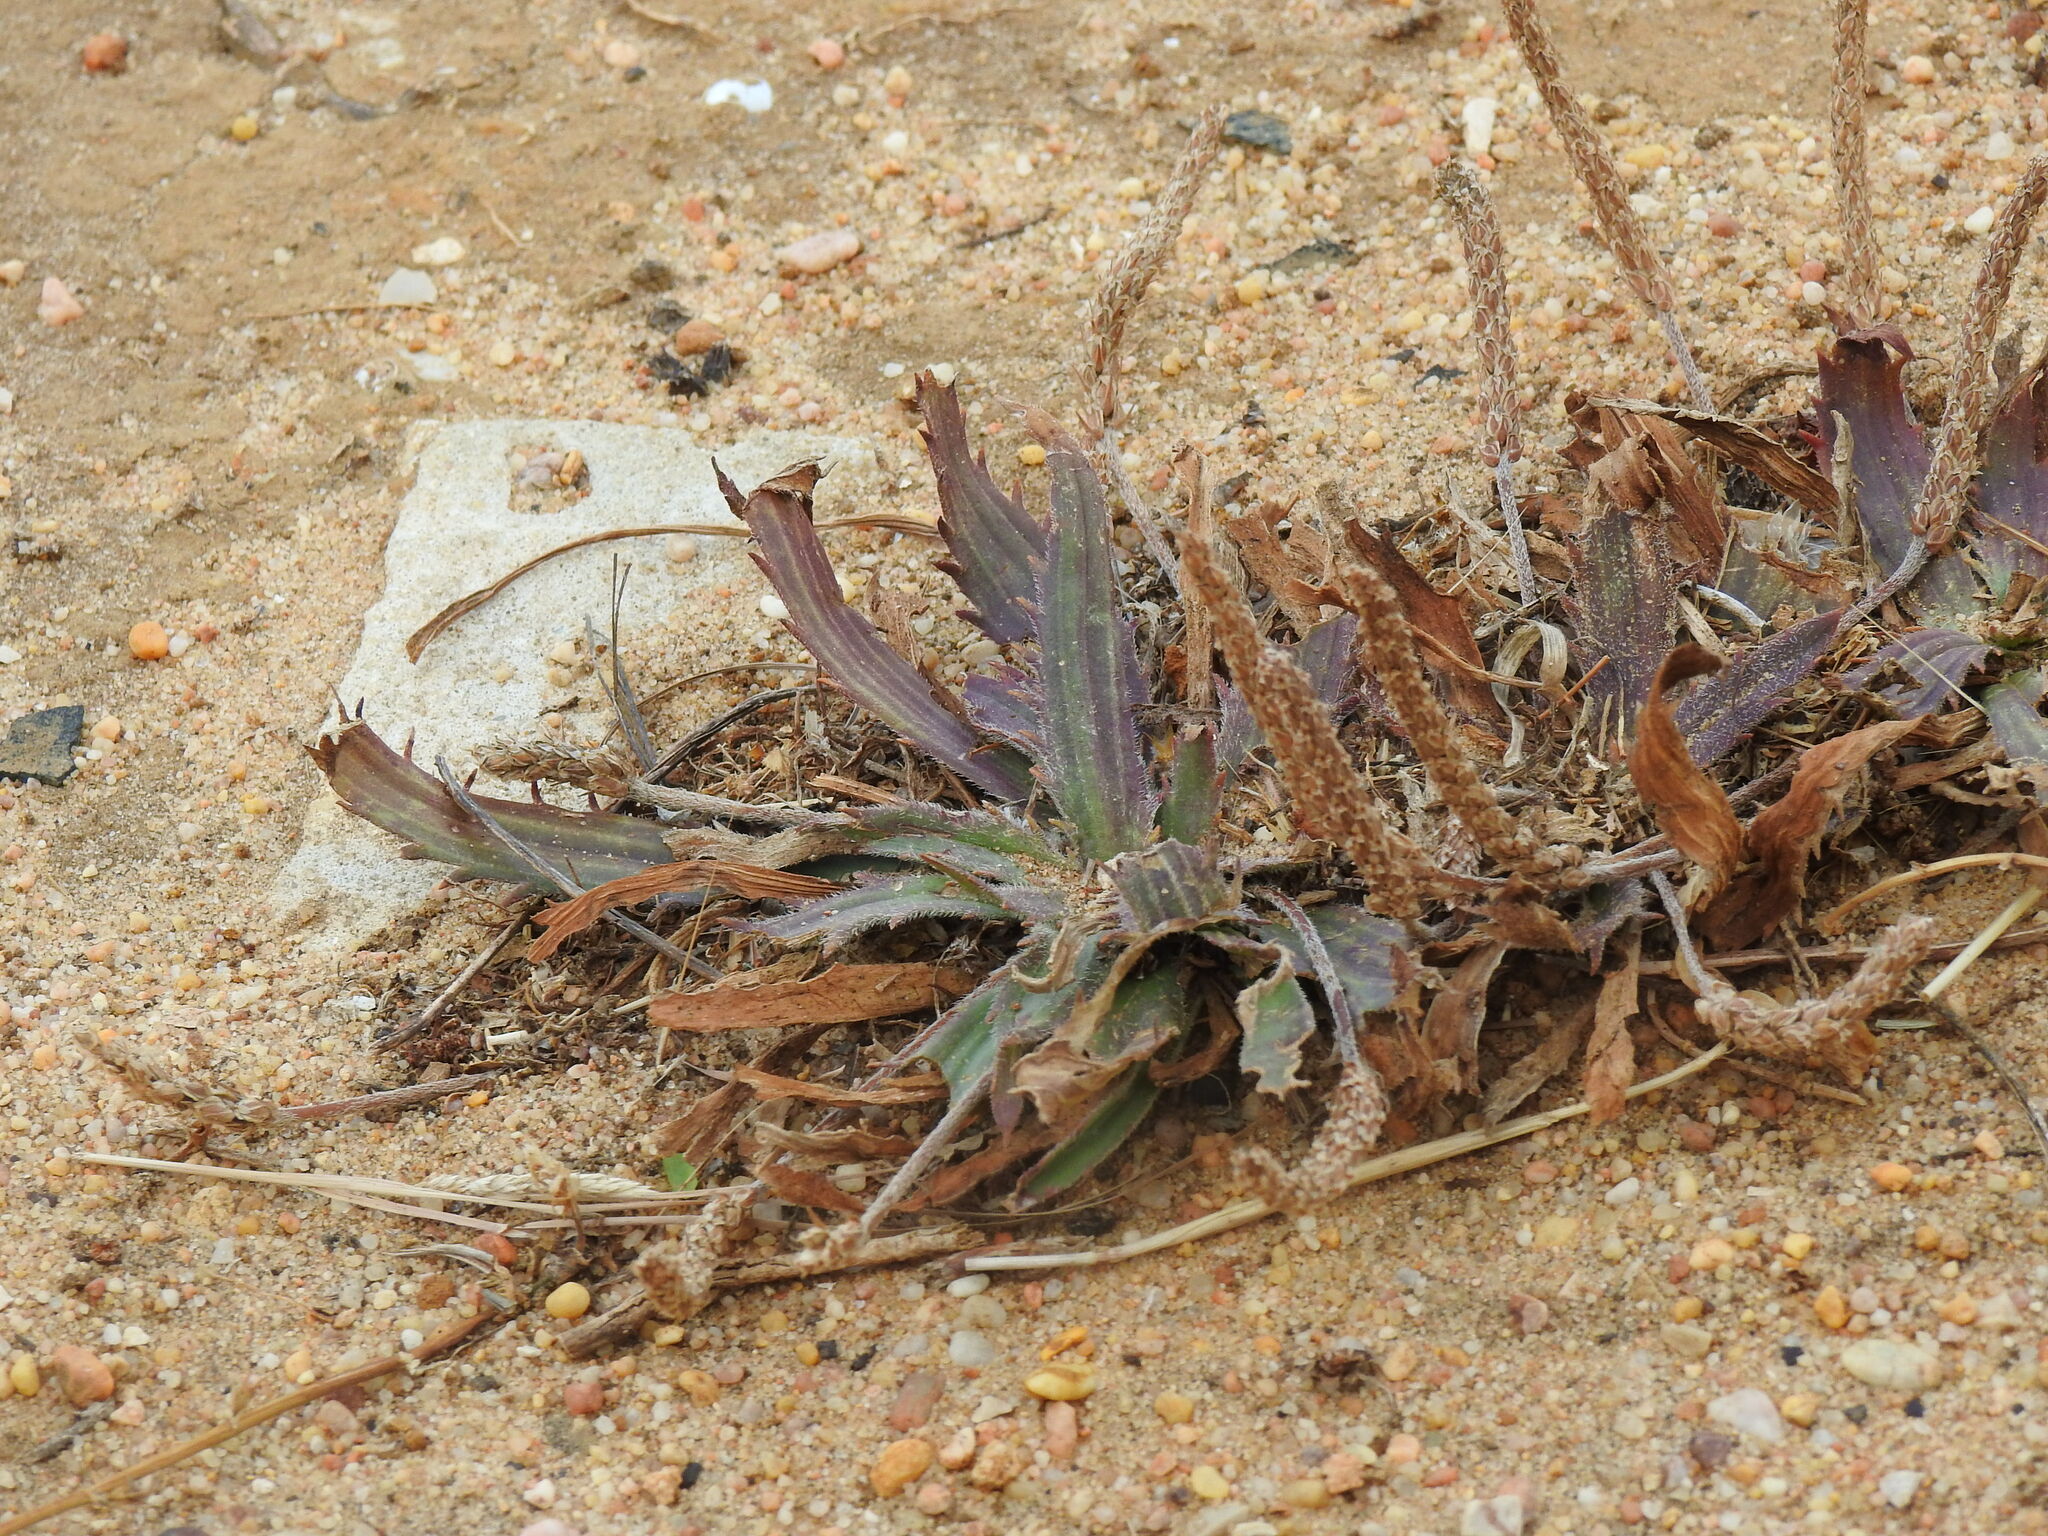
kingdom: Plantae
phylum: Tracheophyta
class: Magnoliopsida
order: Lamiales
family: Plantaginaceae
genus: Plantago
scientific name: Plantago serraria
